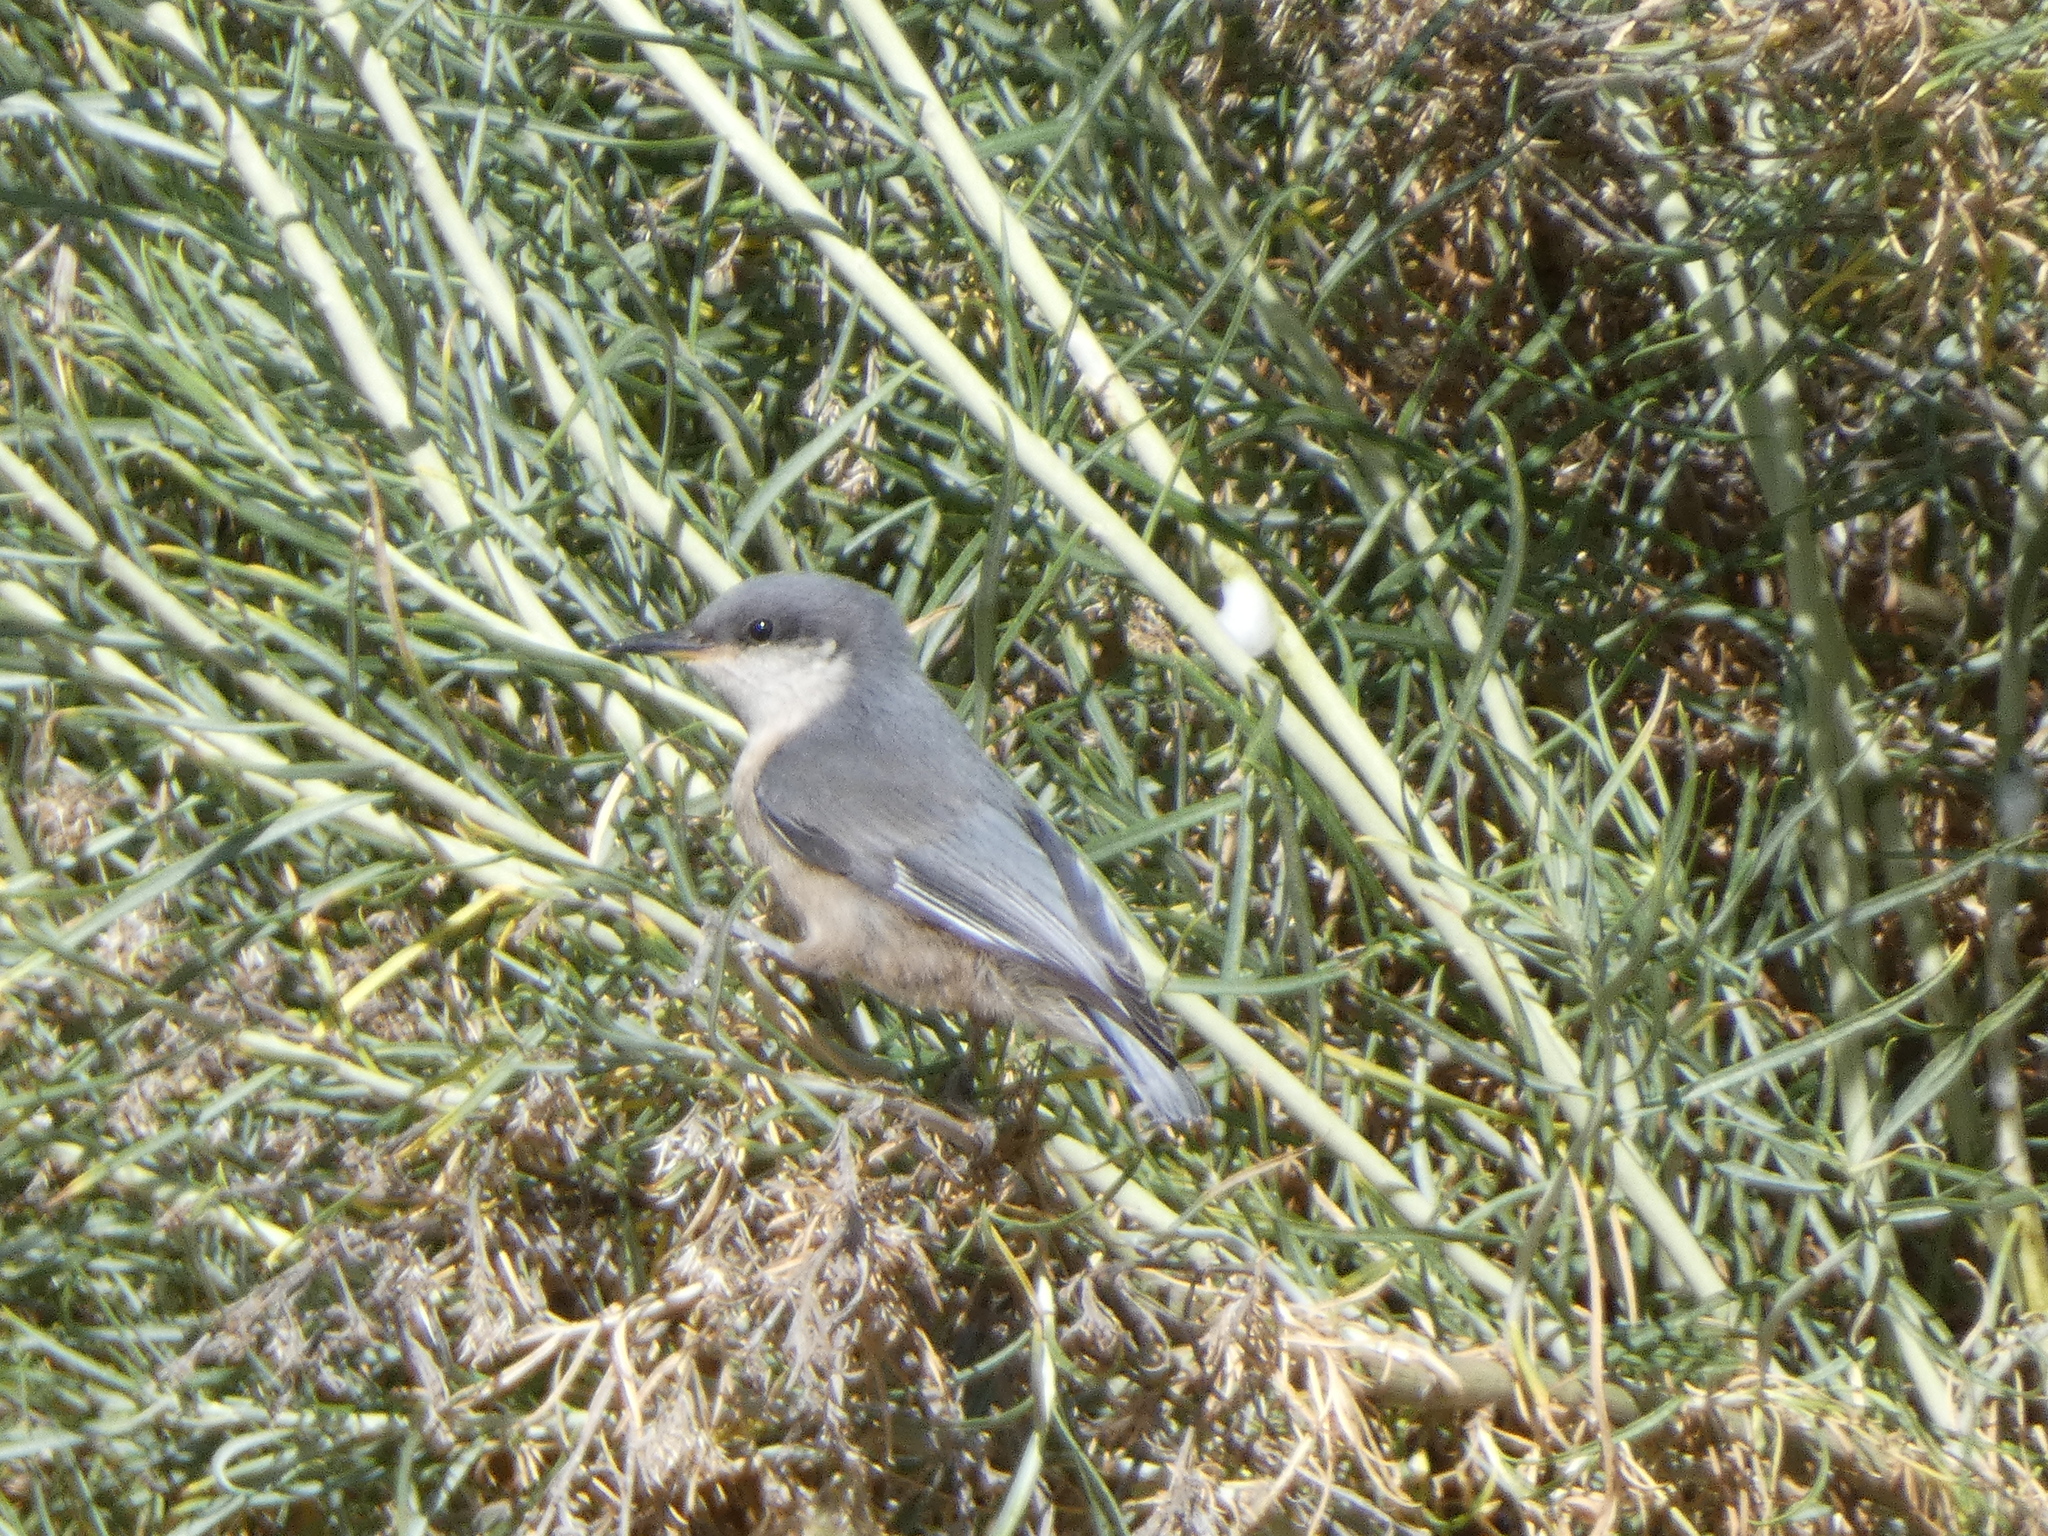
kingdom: Animalia
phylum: Chordata
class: Aves
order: Passeriformes
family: Sittidae
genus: Sitta
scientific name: Sitta pygmaea
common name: Pygmy nuthatch
